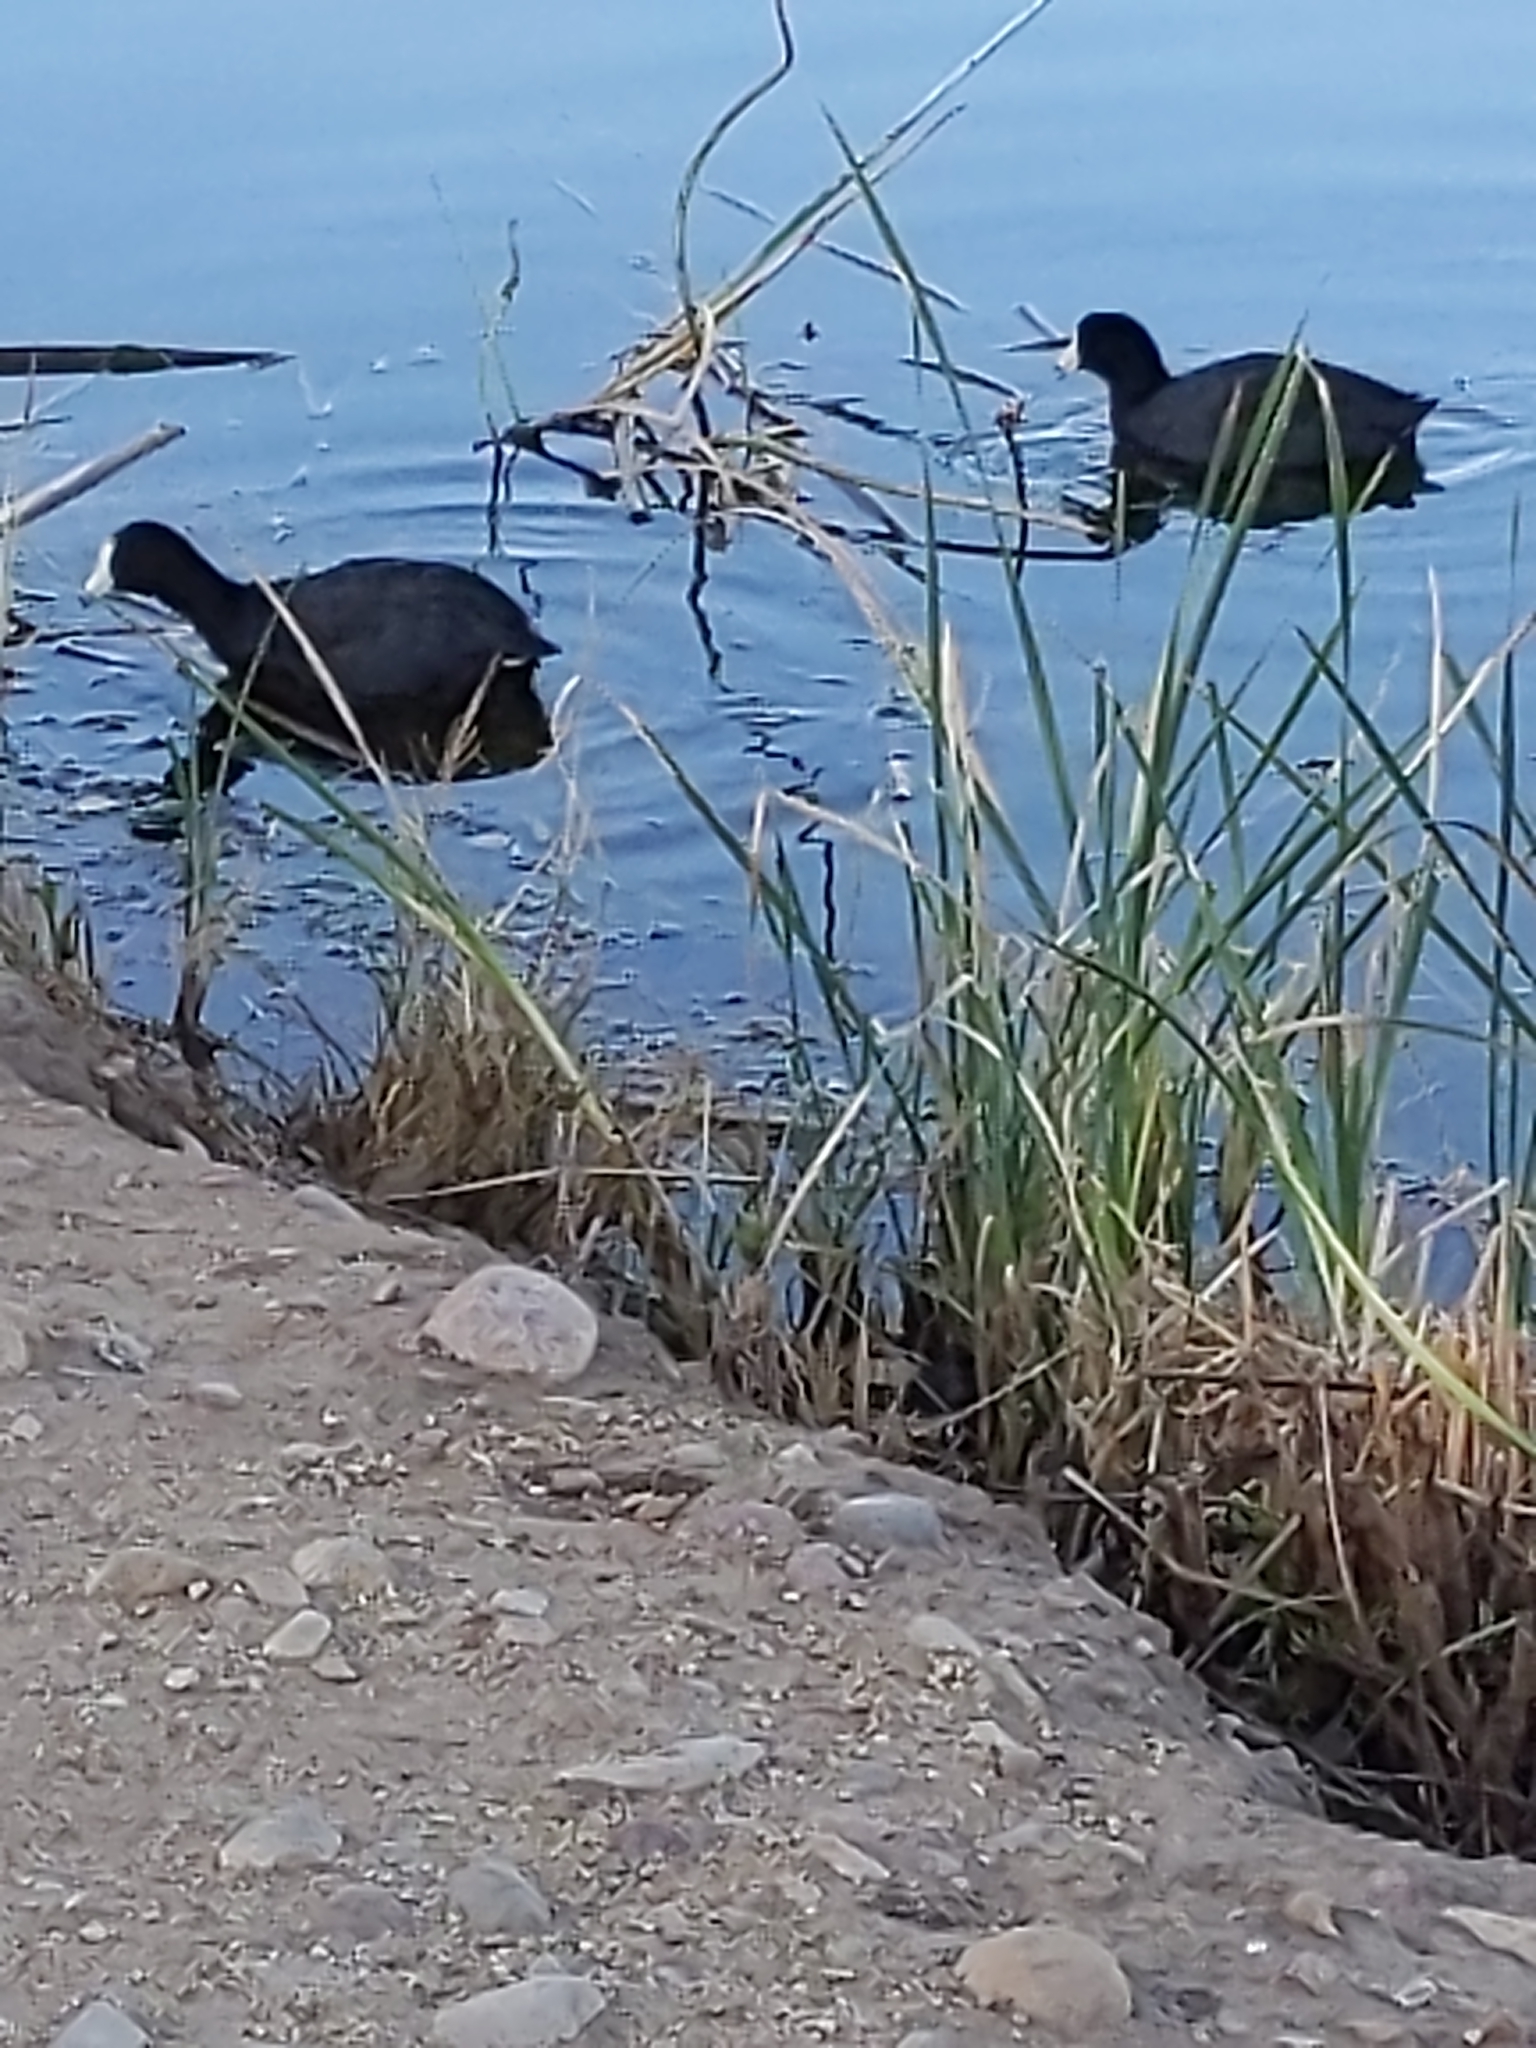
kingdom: Animalia
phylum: Chordata
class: Aves
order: Gruiformes
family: Rallidae
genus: Fulica
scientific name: Fulica americana
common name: American coot
